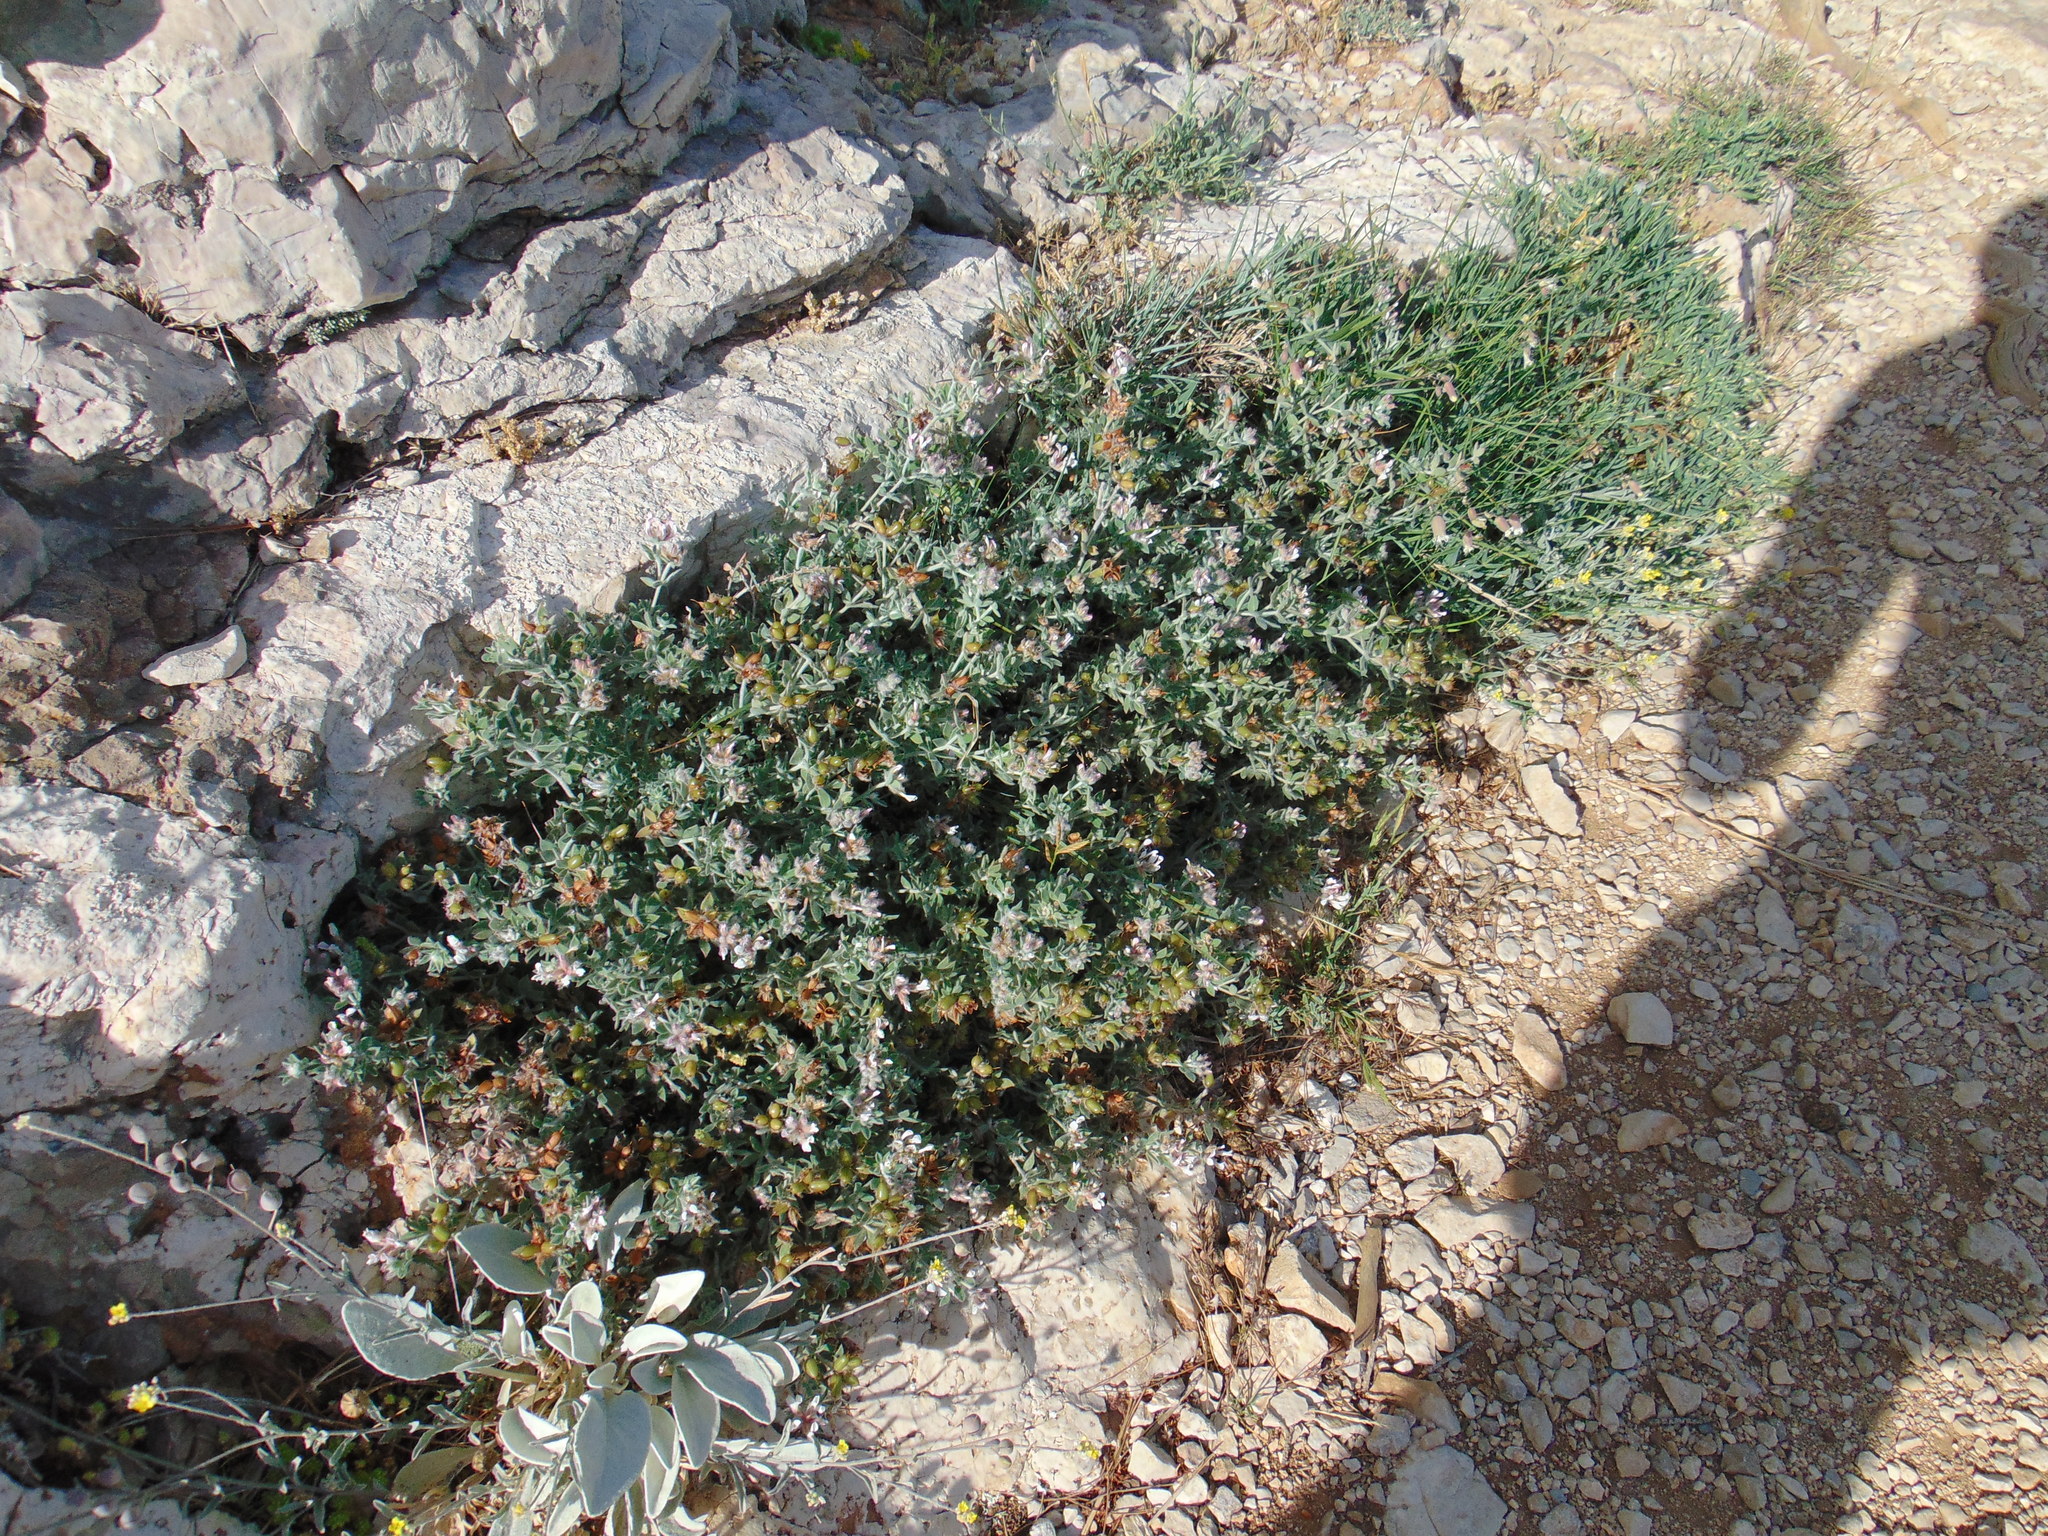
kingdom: Plantae
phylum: Tracheophyta
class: Magnoliopsida
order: Fabales
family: Fabaceae
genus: Lotus
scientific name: Lotus hirsutus
